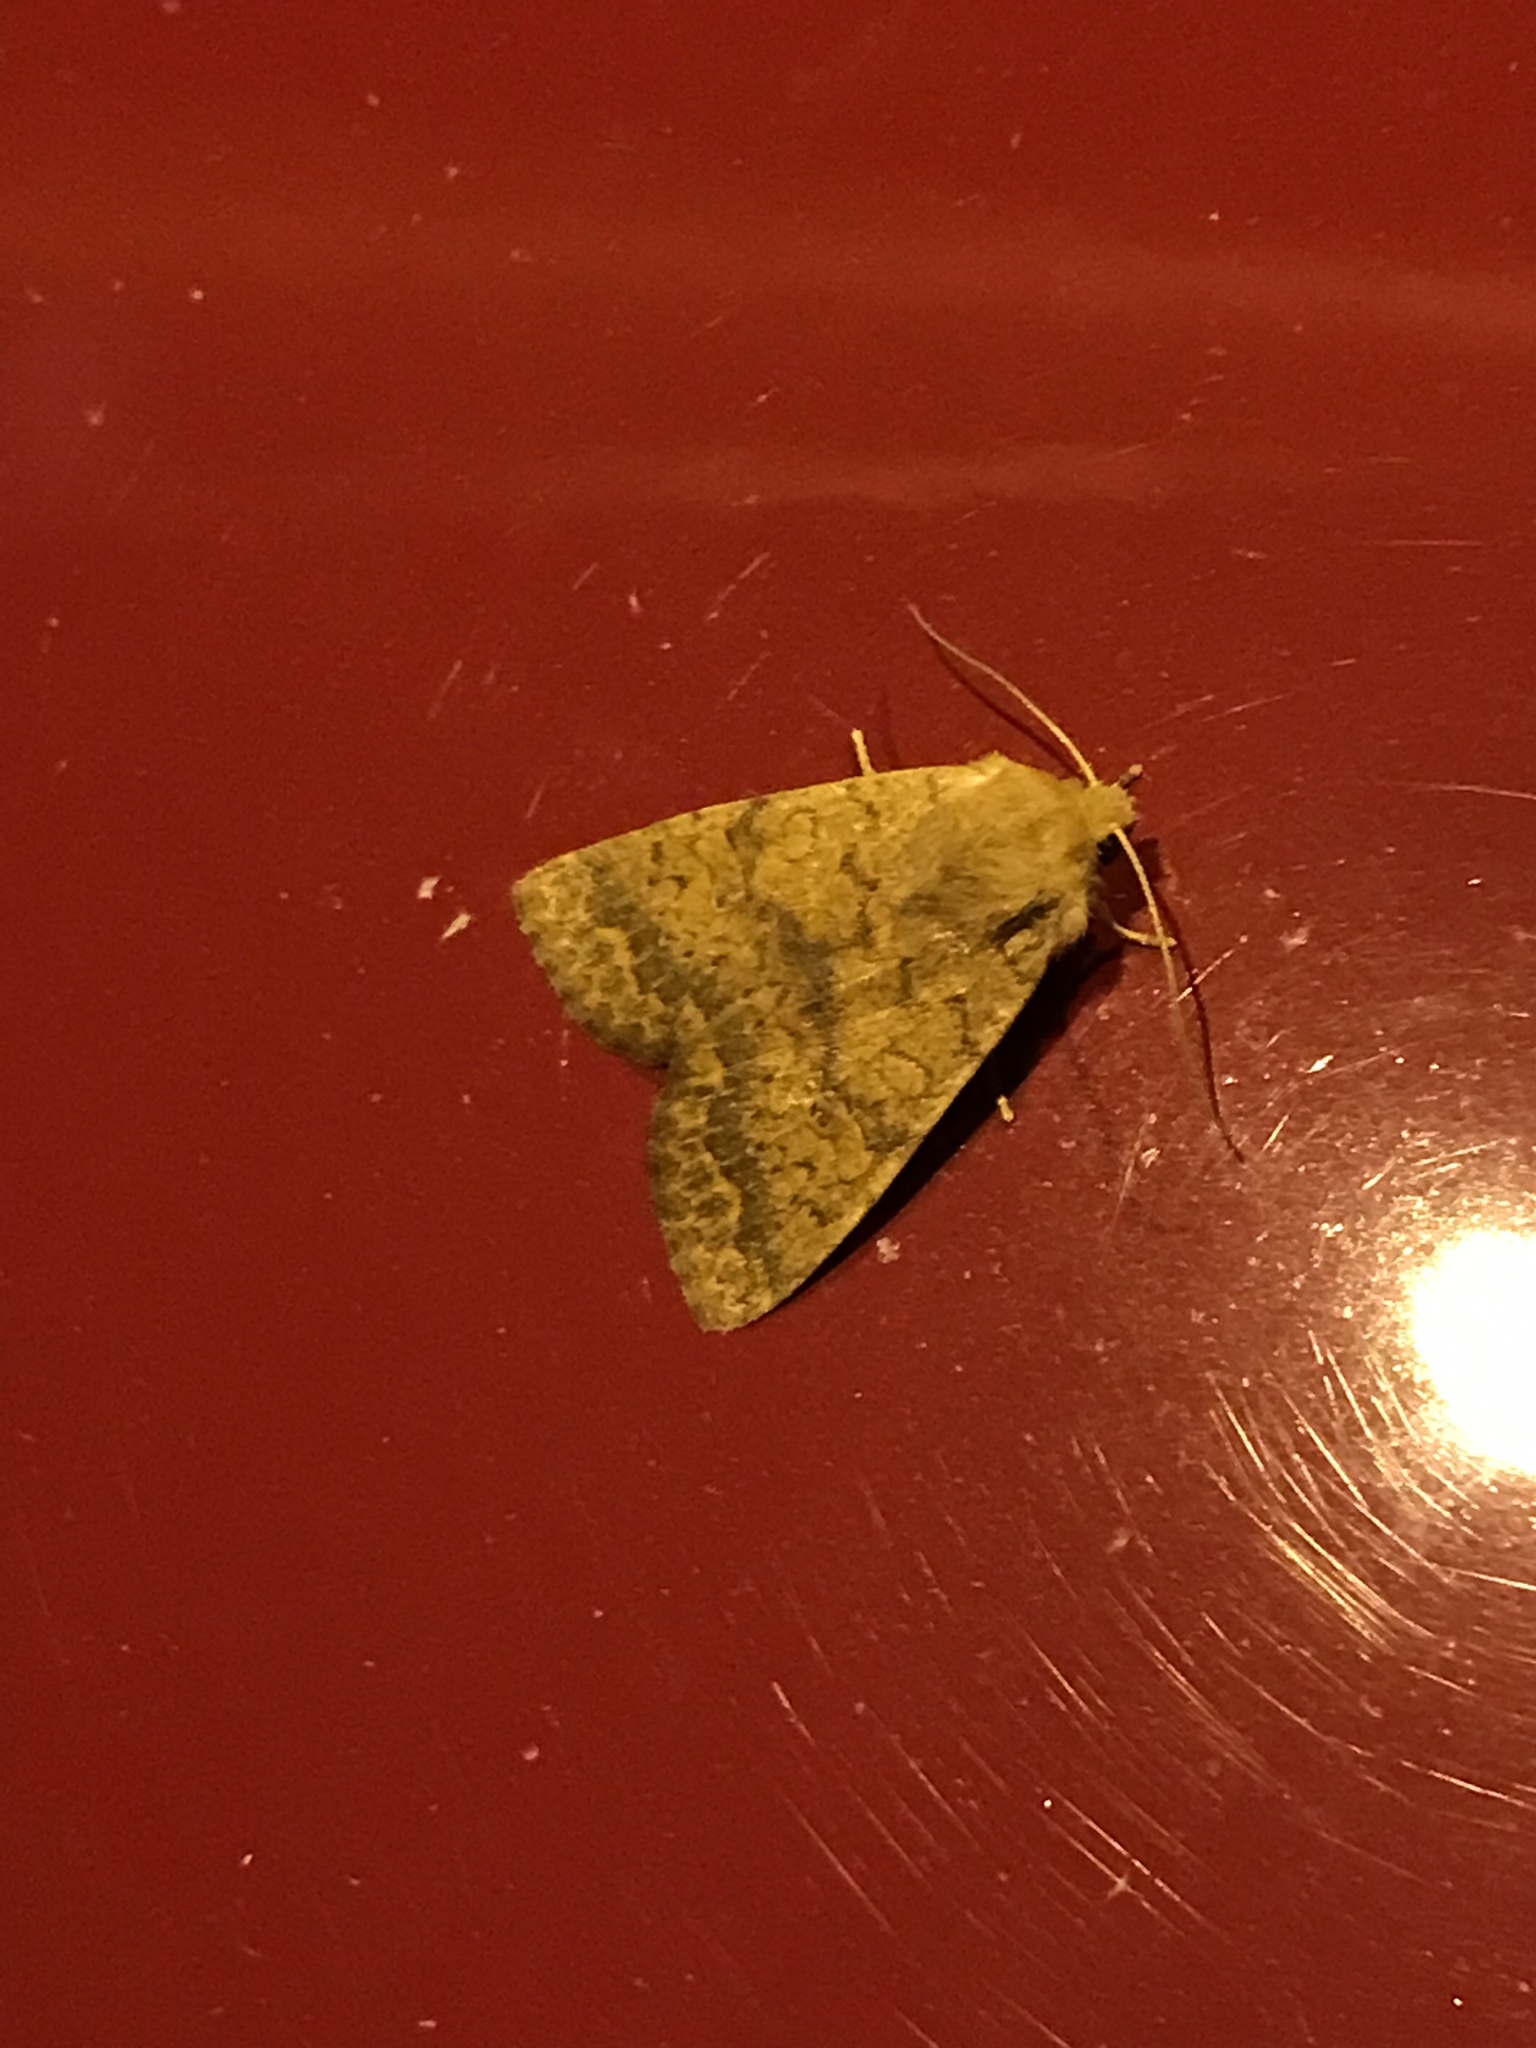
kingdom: Animalia
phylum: Arthropoda
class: Insecta
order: Lepidoptera
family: Noctuidae
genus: Agrochola
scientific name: Agrochola bicolorago
